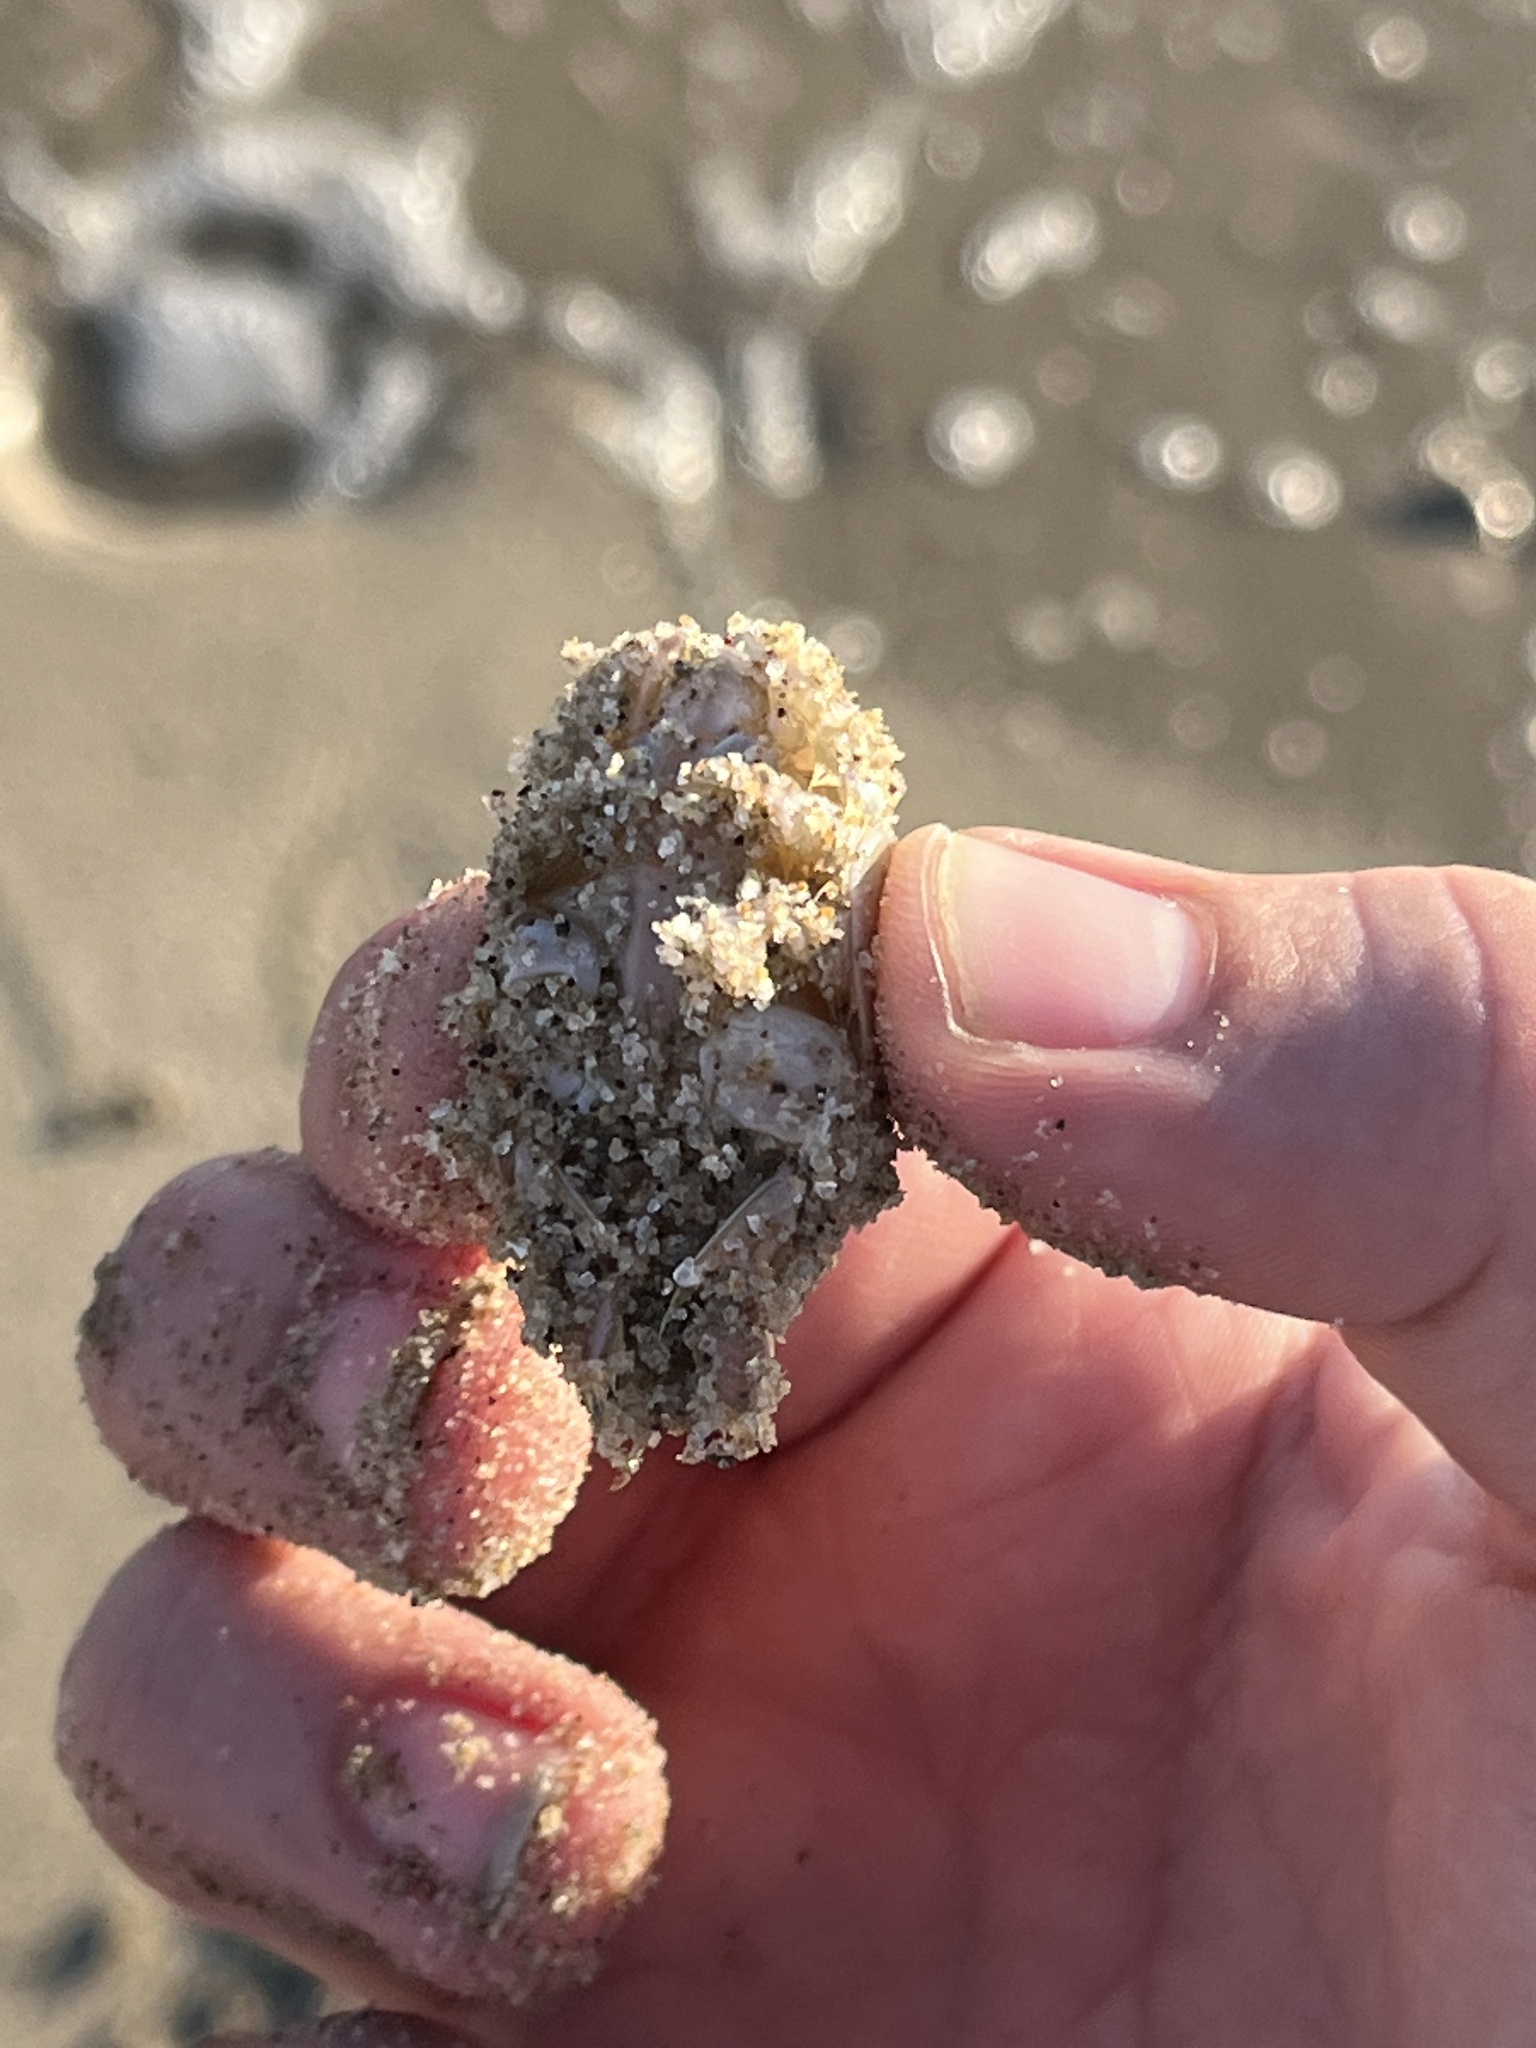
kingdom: Animalia
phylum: Arthropoda
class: Malacostraca
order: Decapoda
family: Hippidae
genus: Emerita
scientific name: Emerita analoga
